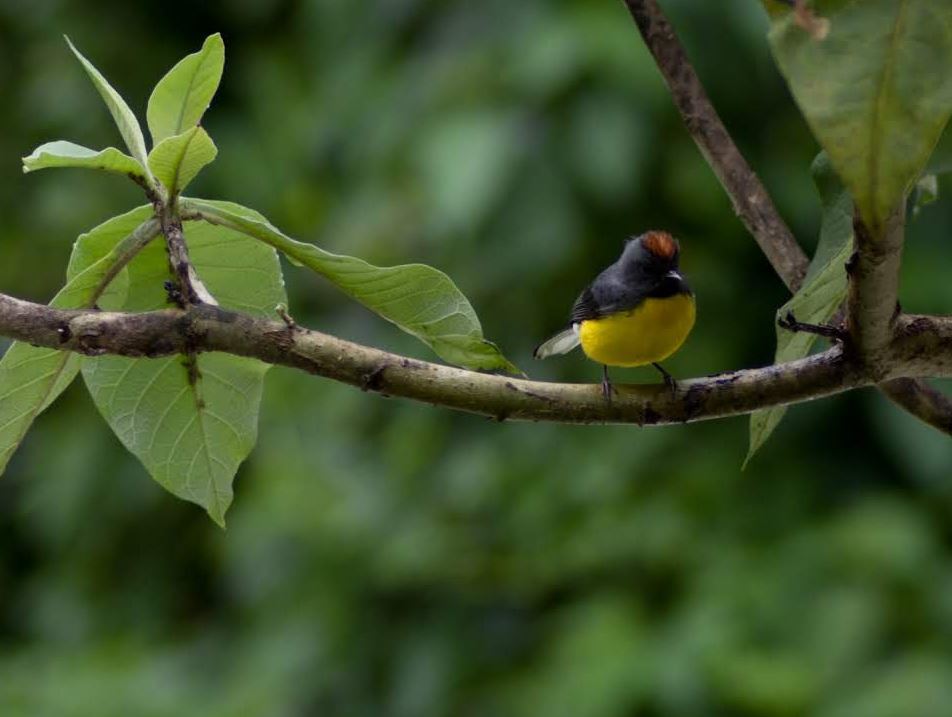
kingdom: Animalia
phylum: Chordata
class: Aves
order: Passeriformes
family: Parulidae
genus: Myioborus
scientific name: Myioborus miniatus
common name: Slate-throated redstart
